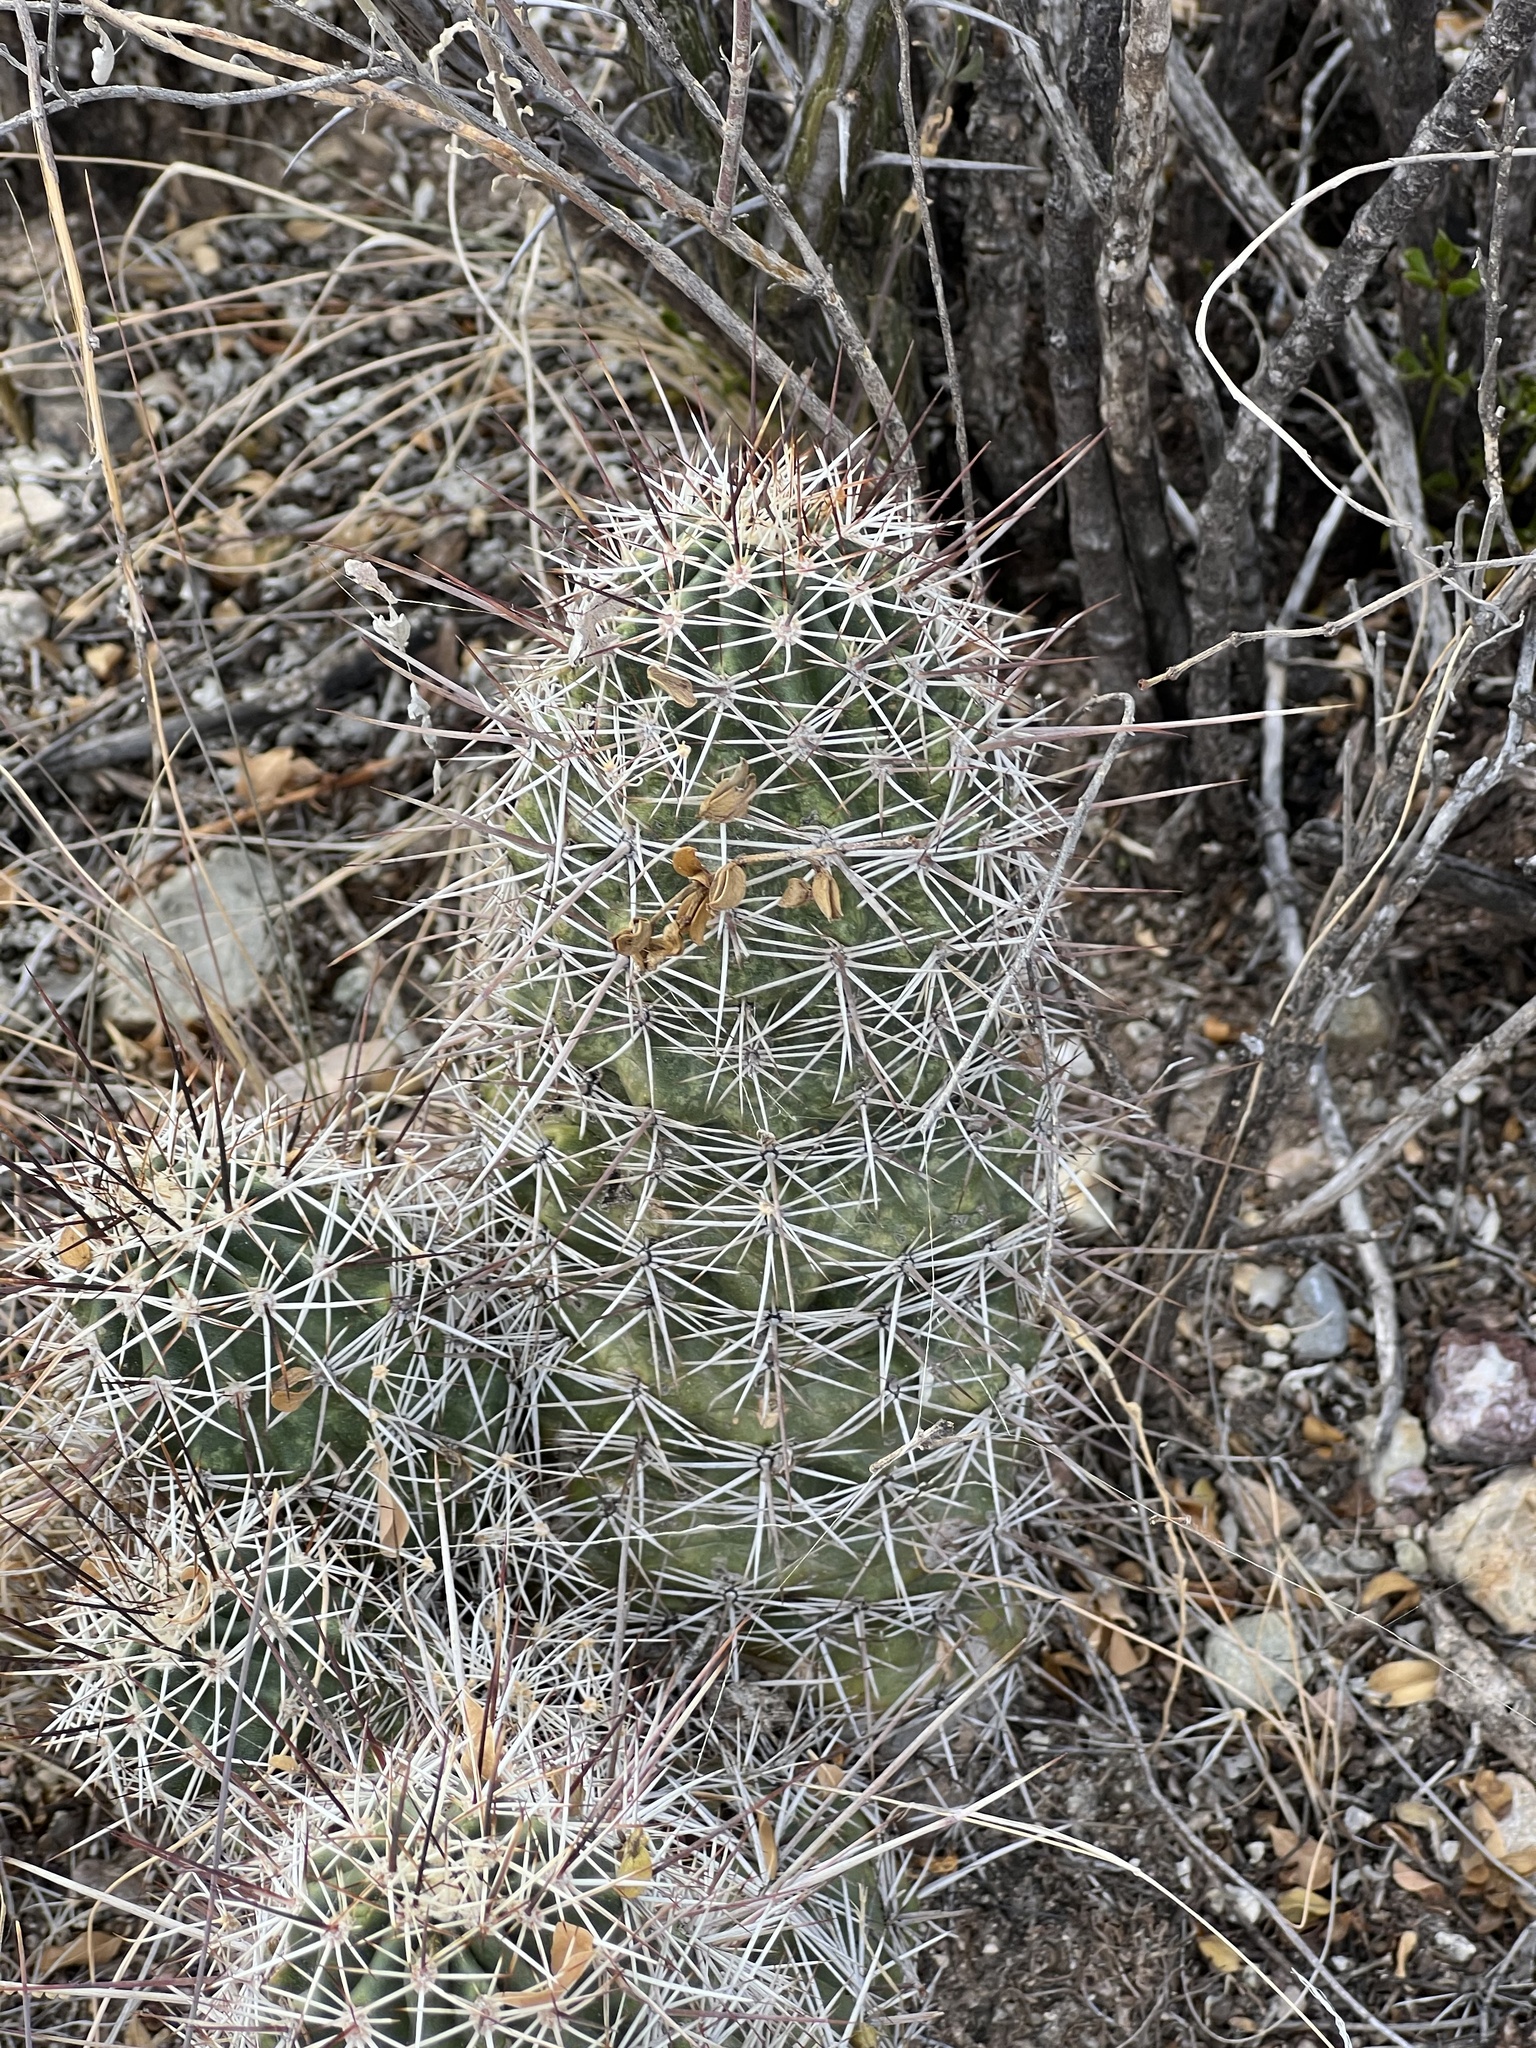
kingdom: Plantae
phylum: Tracheophyta
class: Magnoliopsida
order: Caryophyllales
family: Cactaceae
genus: Echinocereus
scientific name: Echinocereus fasciculatus
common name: Bundle hedgehog
